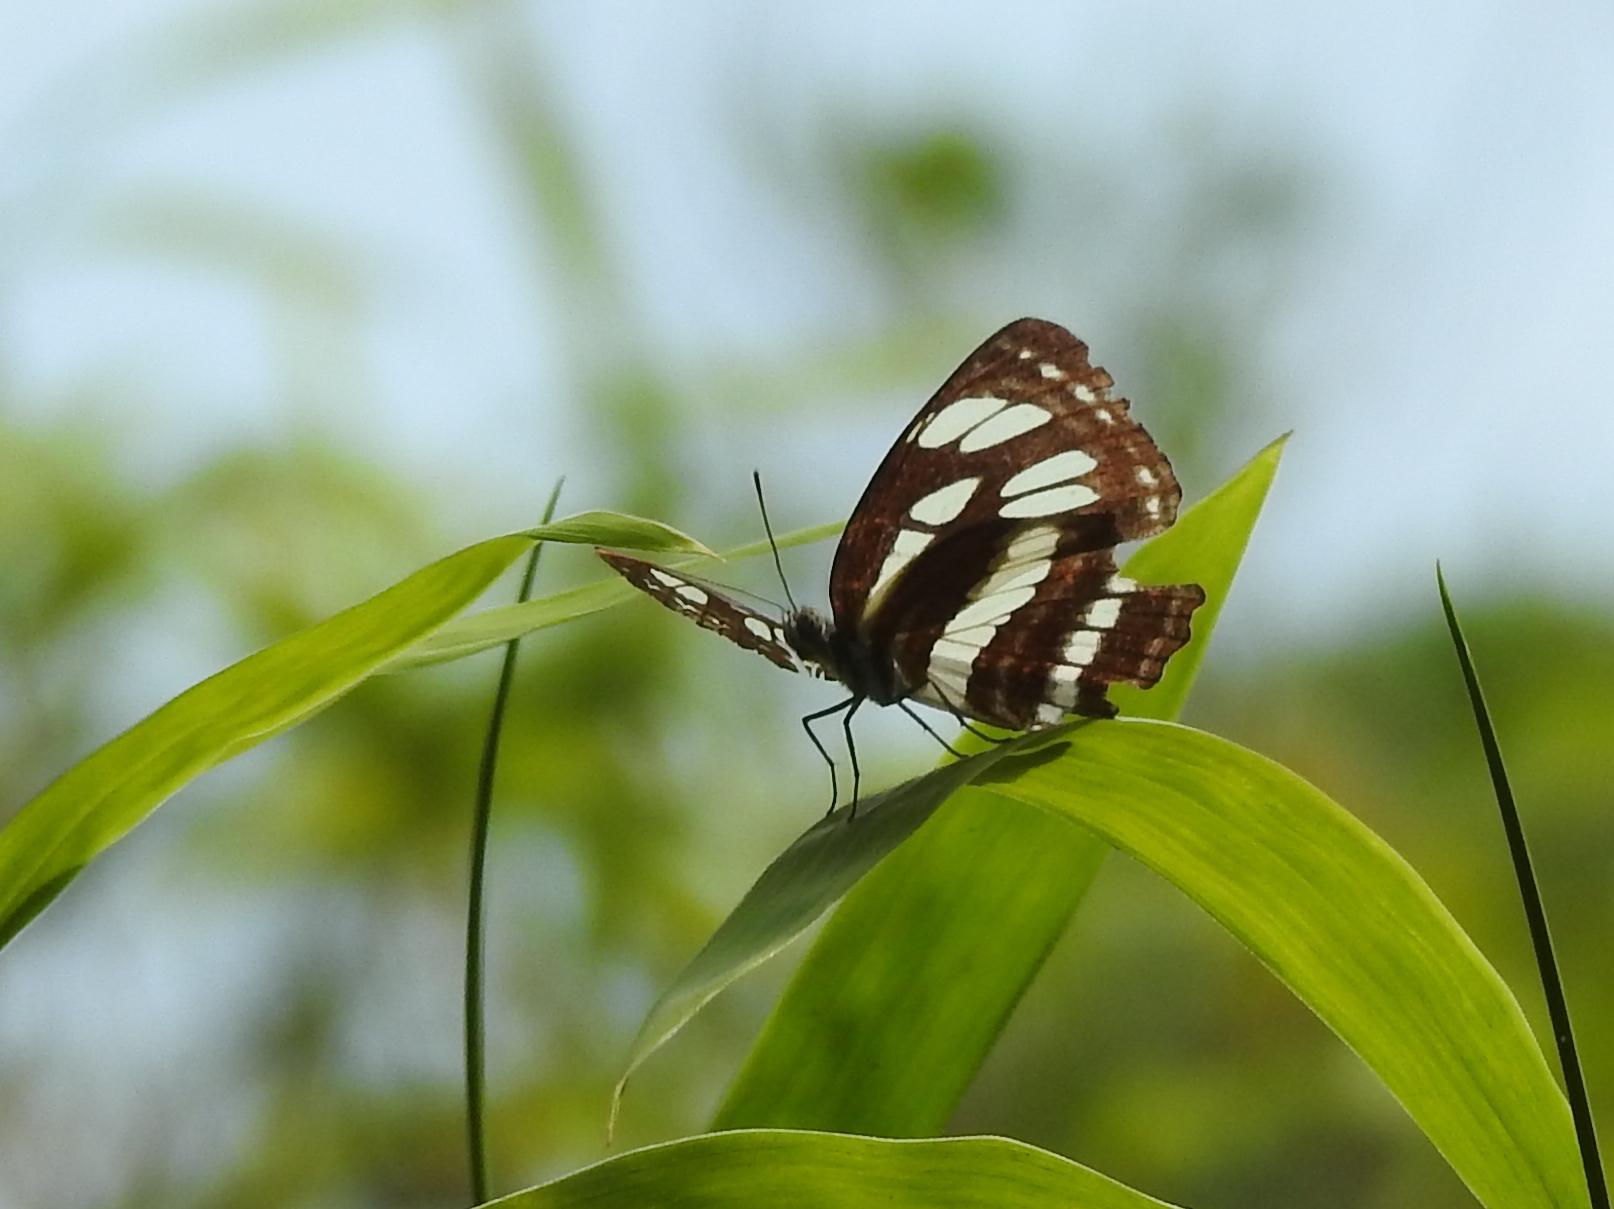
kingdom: Animalia
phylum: Arthropoda
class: Insecta
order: Lepidoptera
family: Nymphalidae
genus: Neptis
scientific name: Neptis hylas
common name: Common sailer
